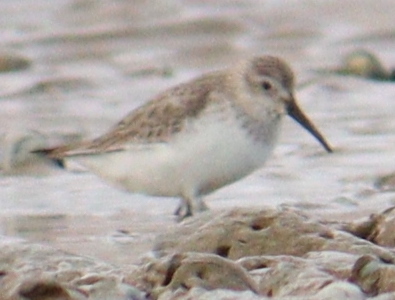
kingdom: Animalia
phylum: Chordata
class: Aves
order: Charadriiformes
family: Scolopacidae
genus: Calidris
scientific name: Calidris alpina
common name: Dunlin
